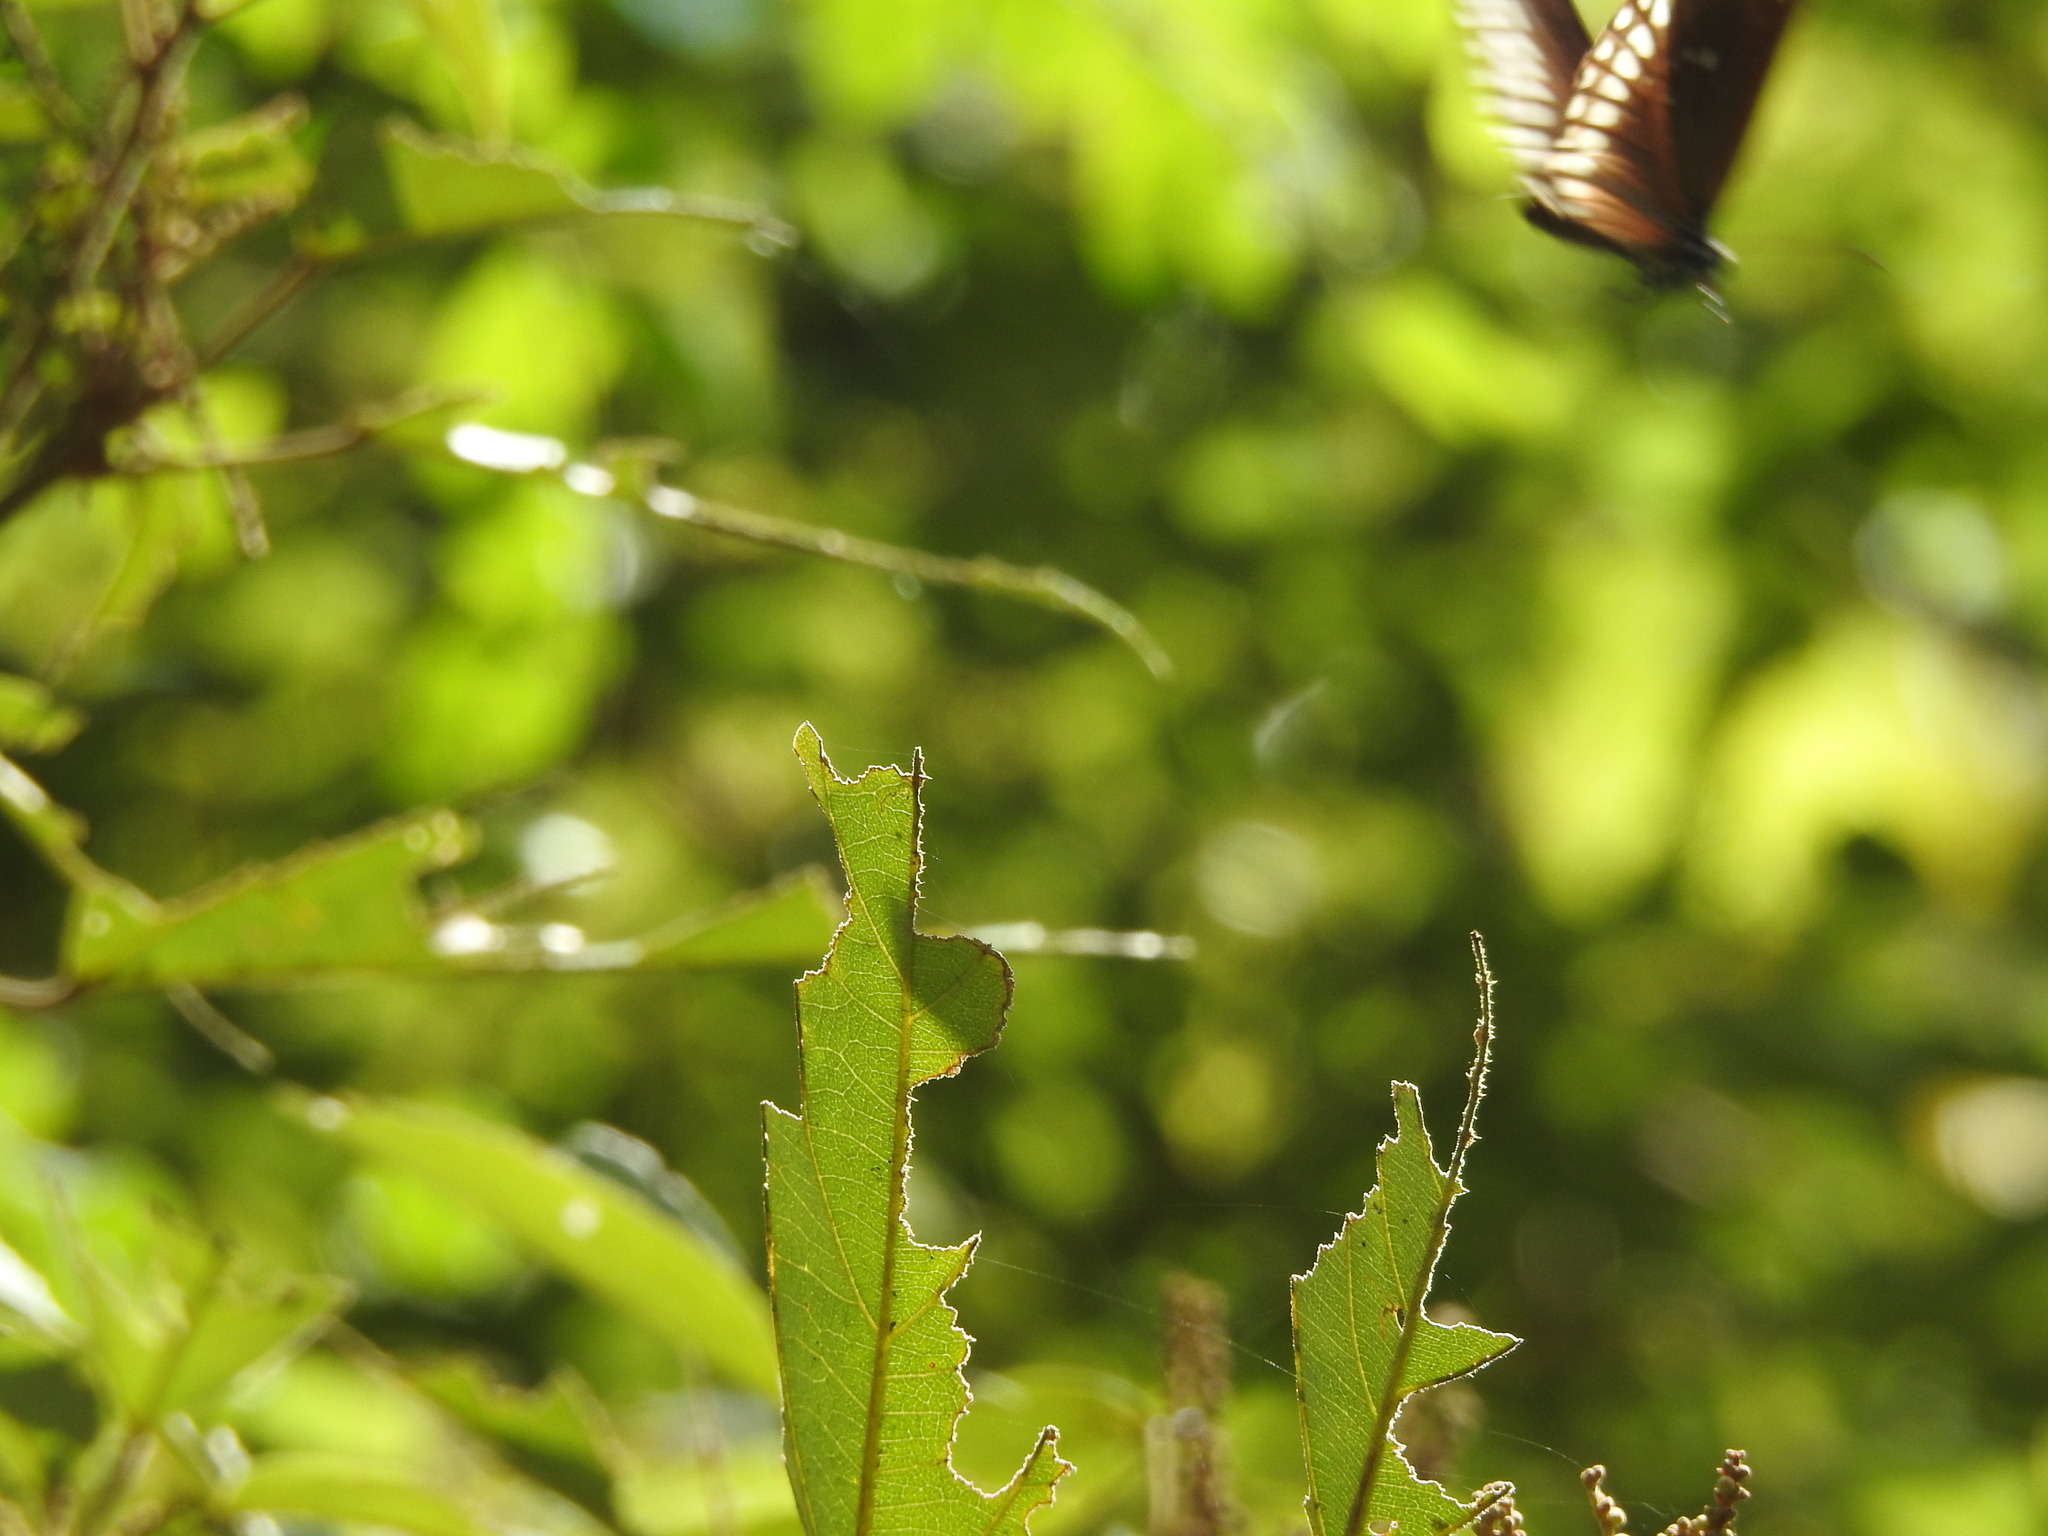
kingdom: Animalia
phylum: Arthropoda
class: Insecta
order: Lepidoptera
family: Nymphalidae
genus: Euploea
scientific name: Euploea core
